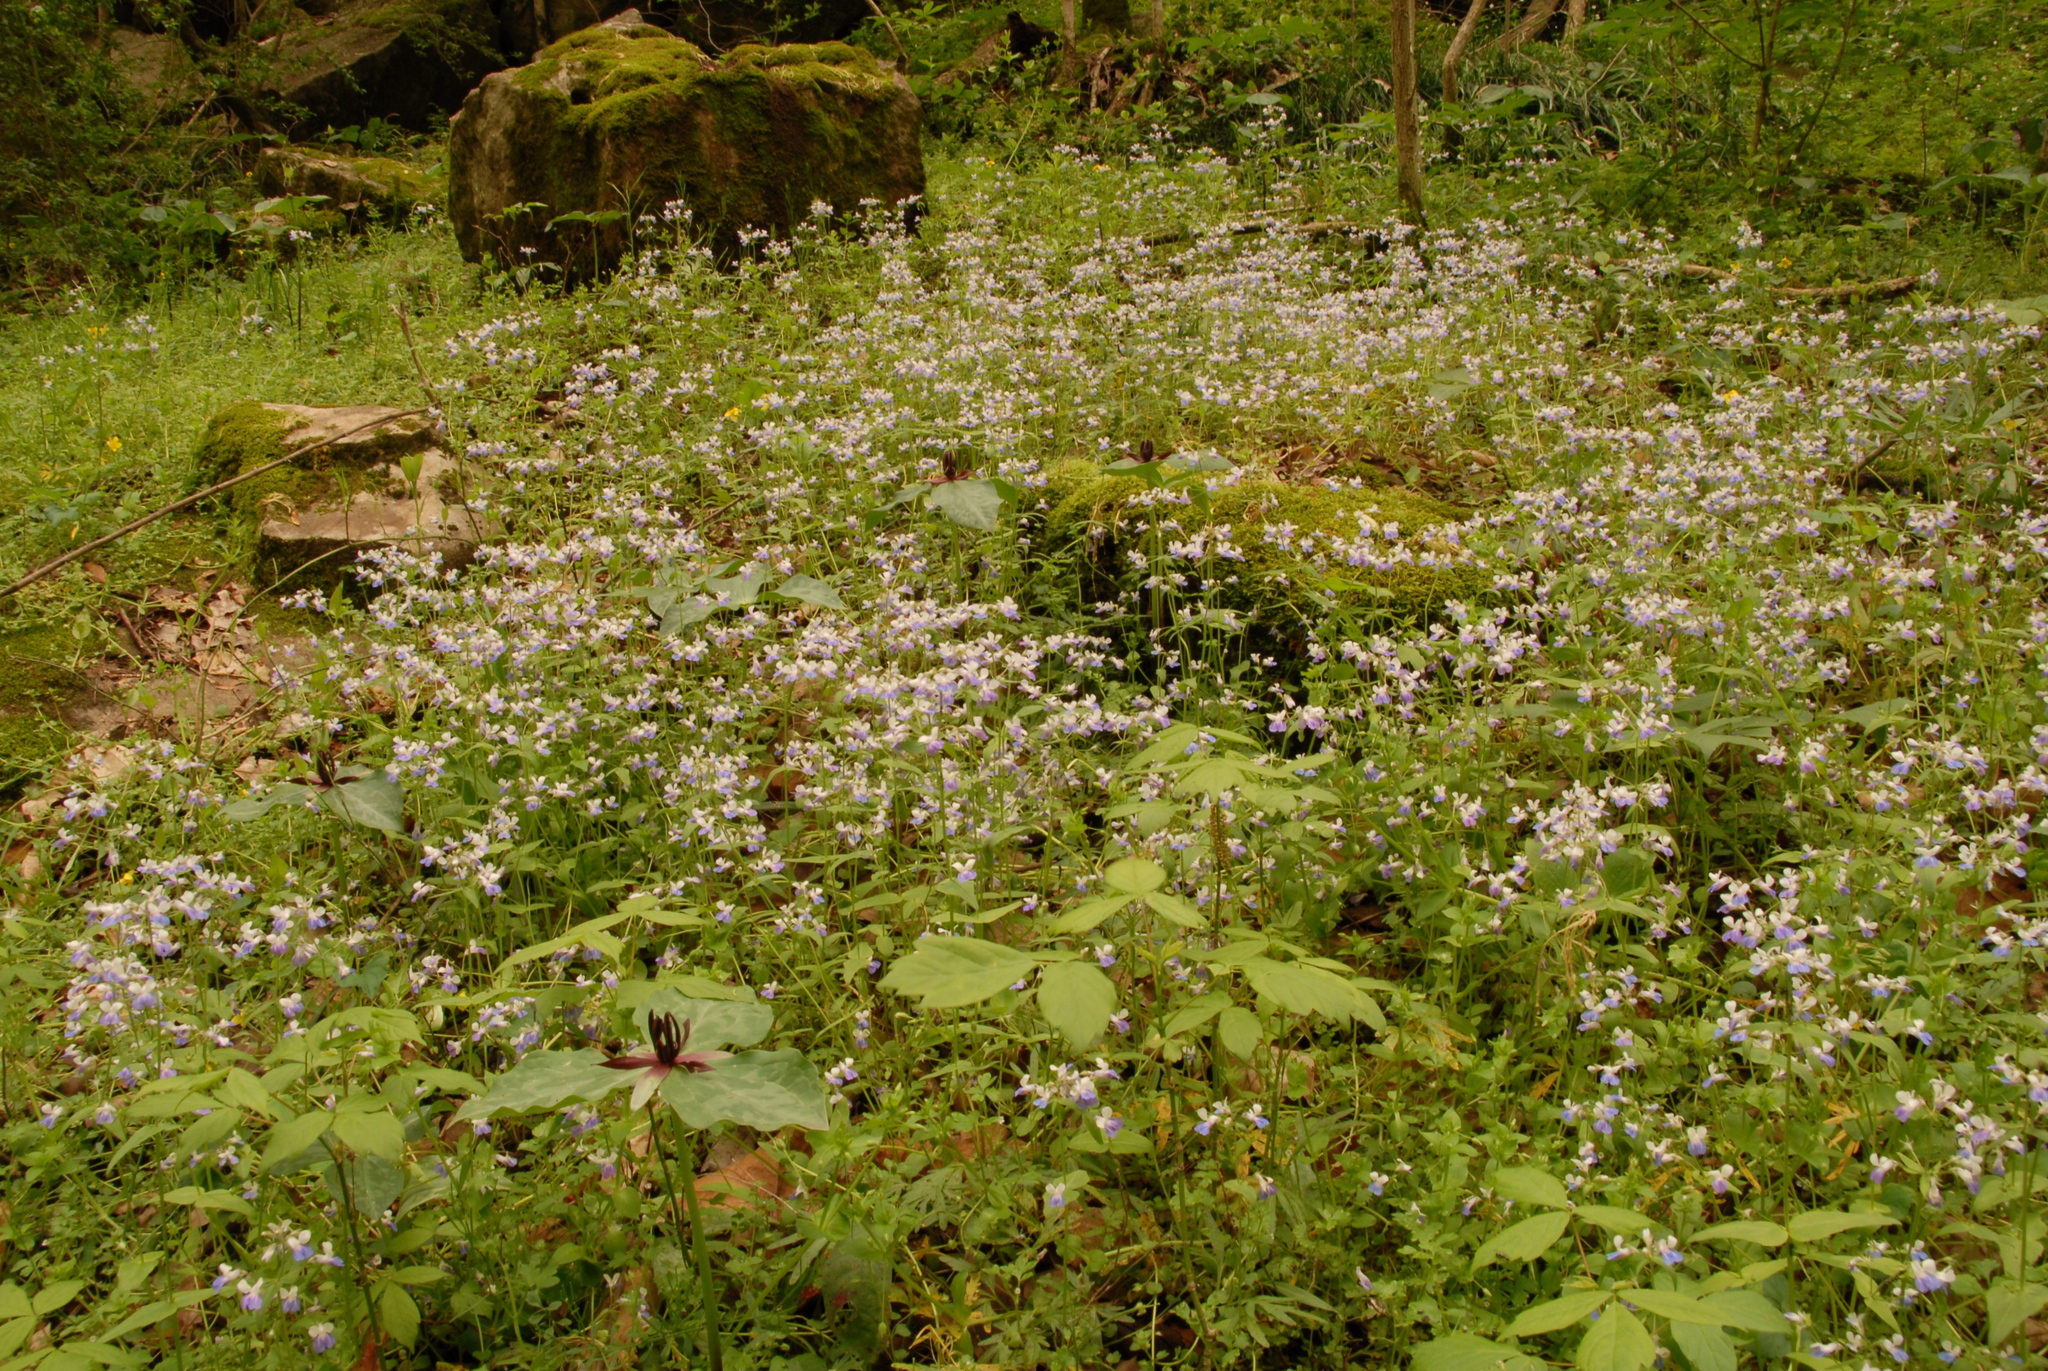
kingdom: Plantae
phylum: Tracheophyta
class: Magnoliopsida
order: Lamiales
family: Plantaginaceae
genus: Collinsia
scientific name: Collinsia verna
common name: Broad-leaved collinsia
